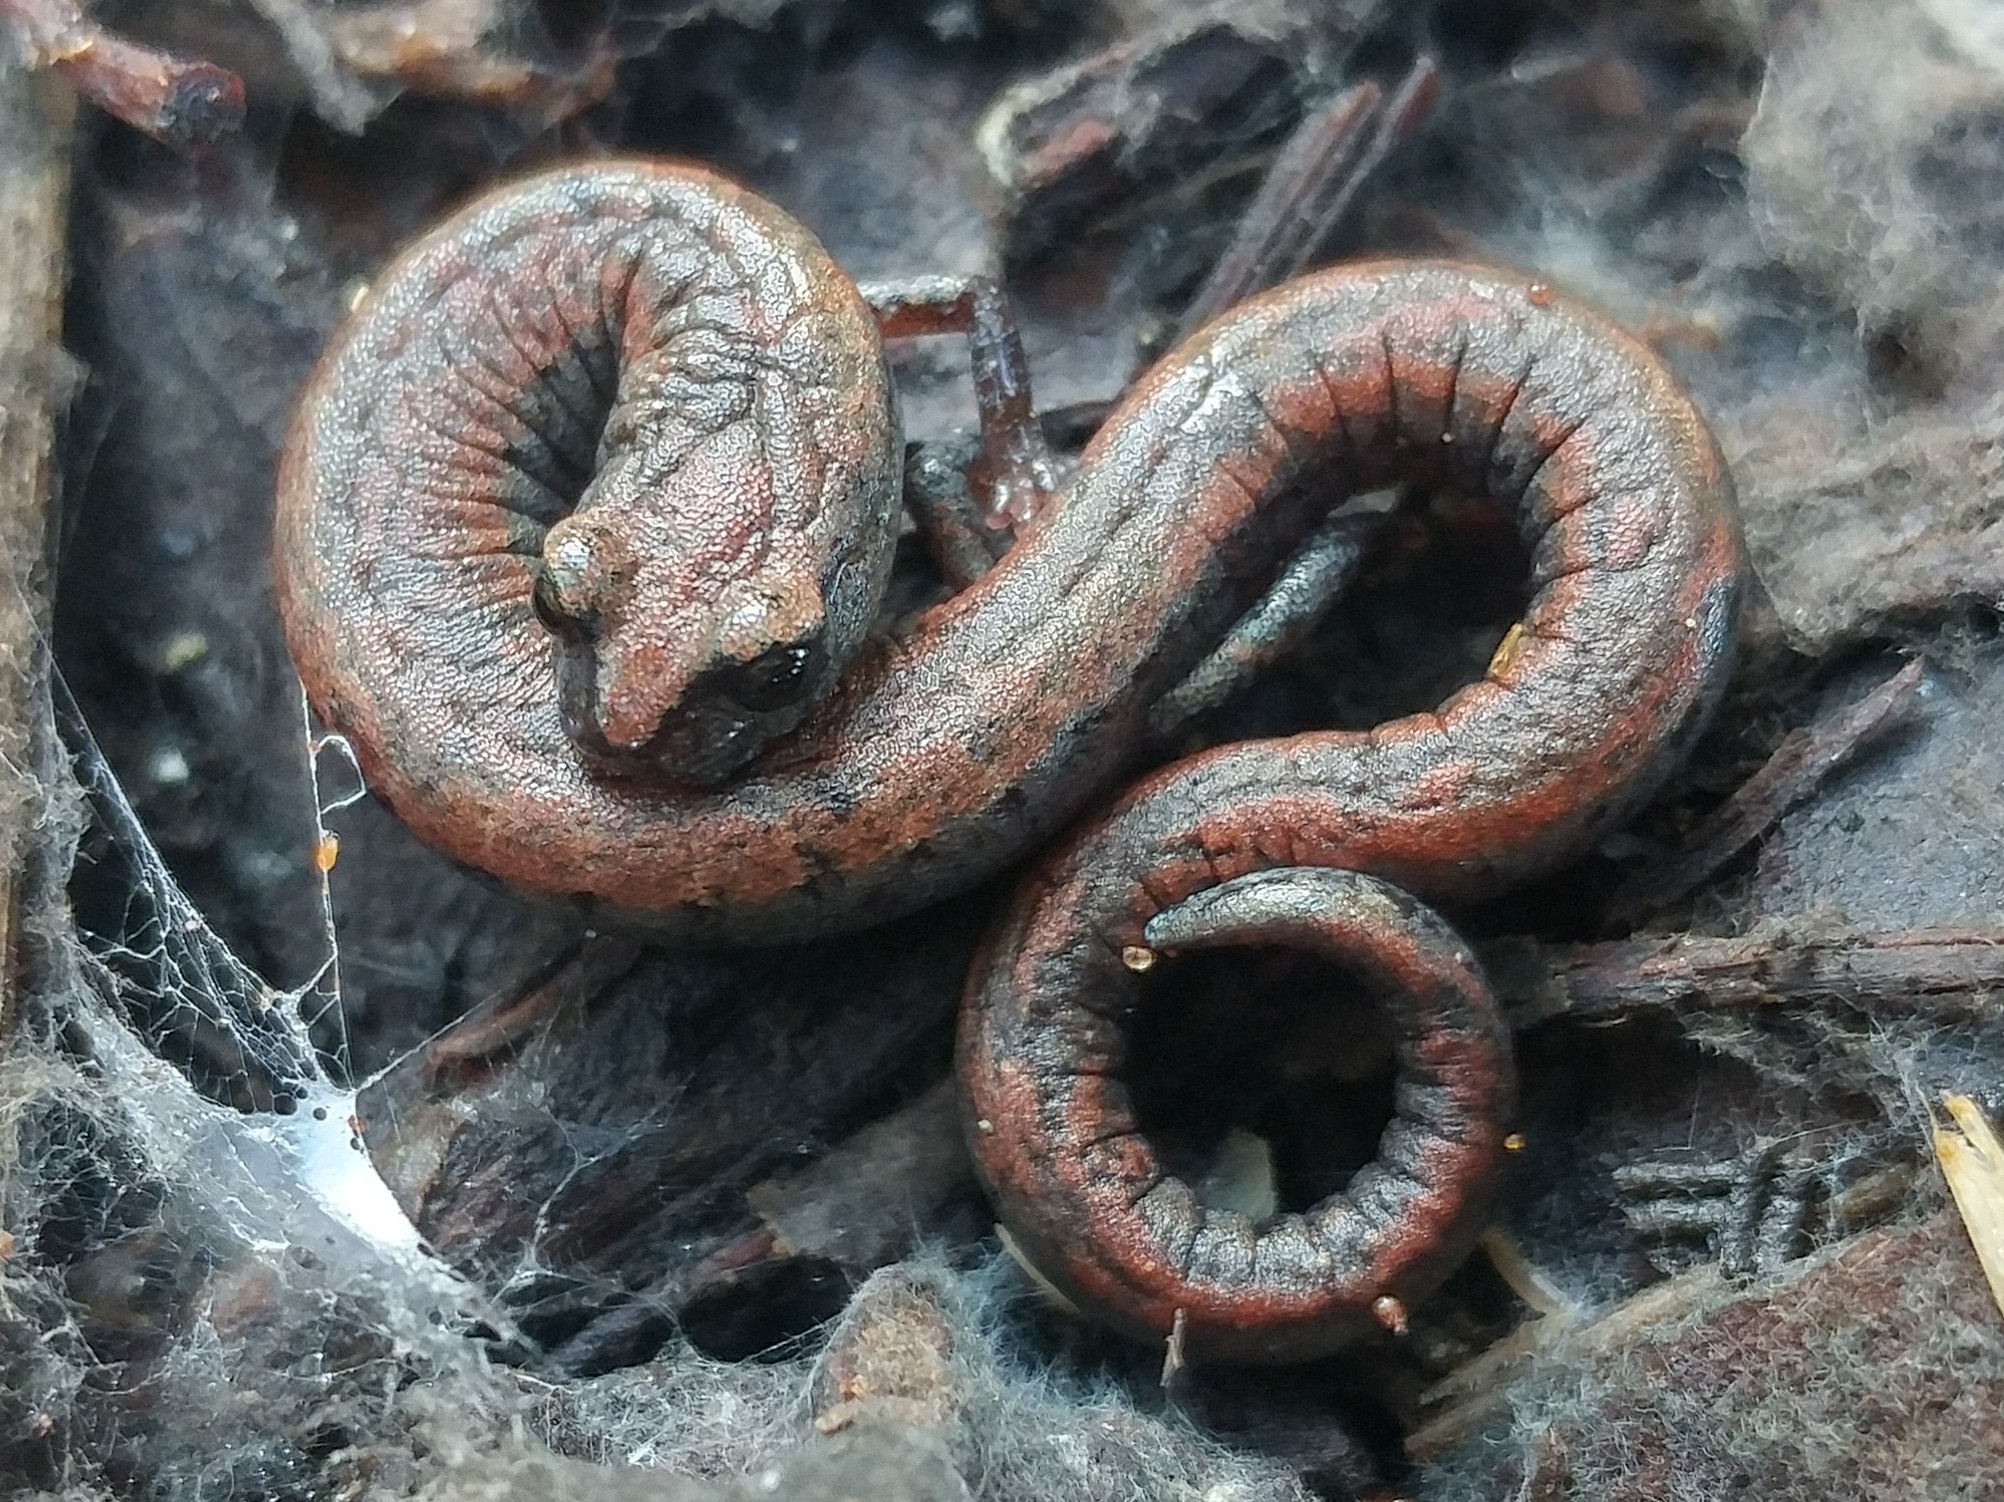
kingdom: Animalia
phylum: Chordata
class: Amphibia
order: Caudata
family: Plethodontidae
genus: Batrachoseps
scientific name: Batrachoseps nigriventris
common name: Black-bellied slender salamander
